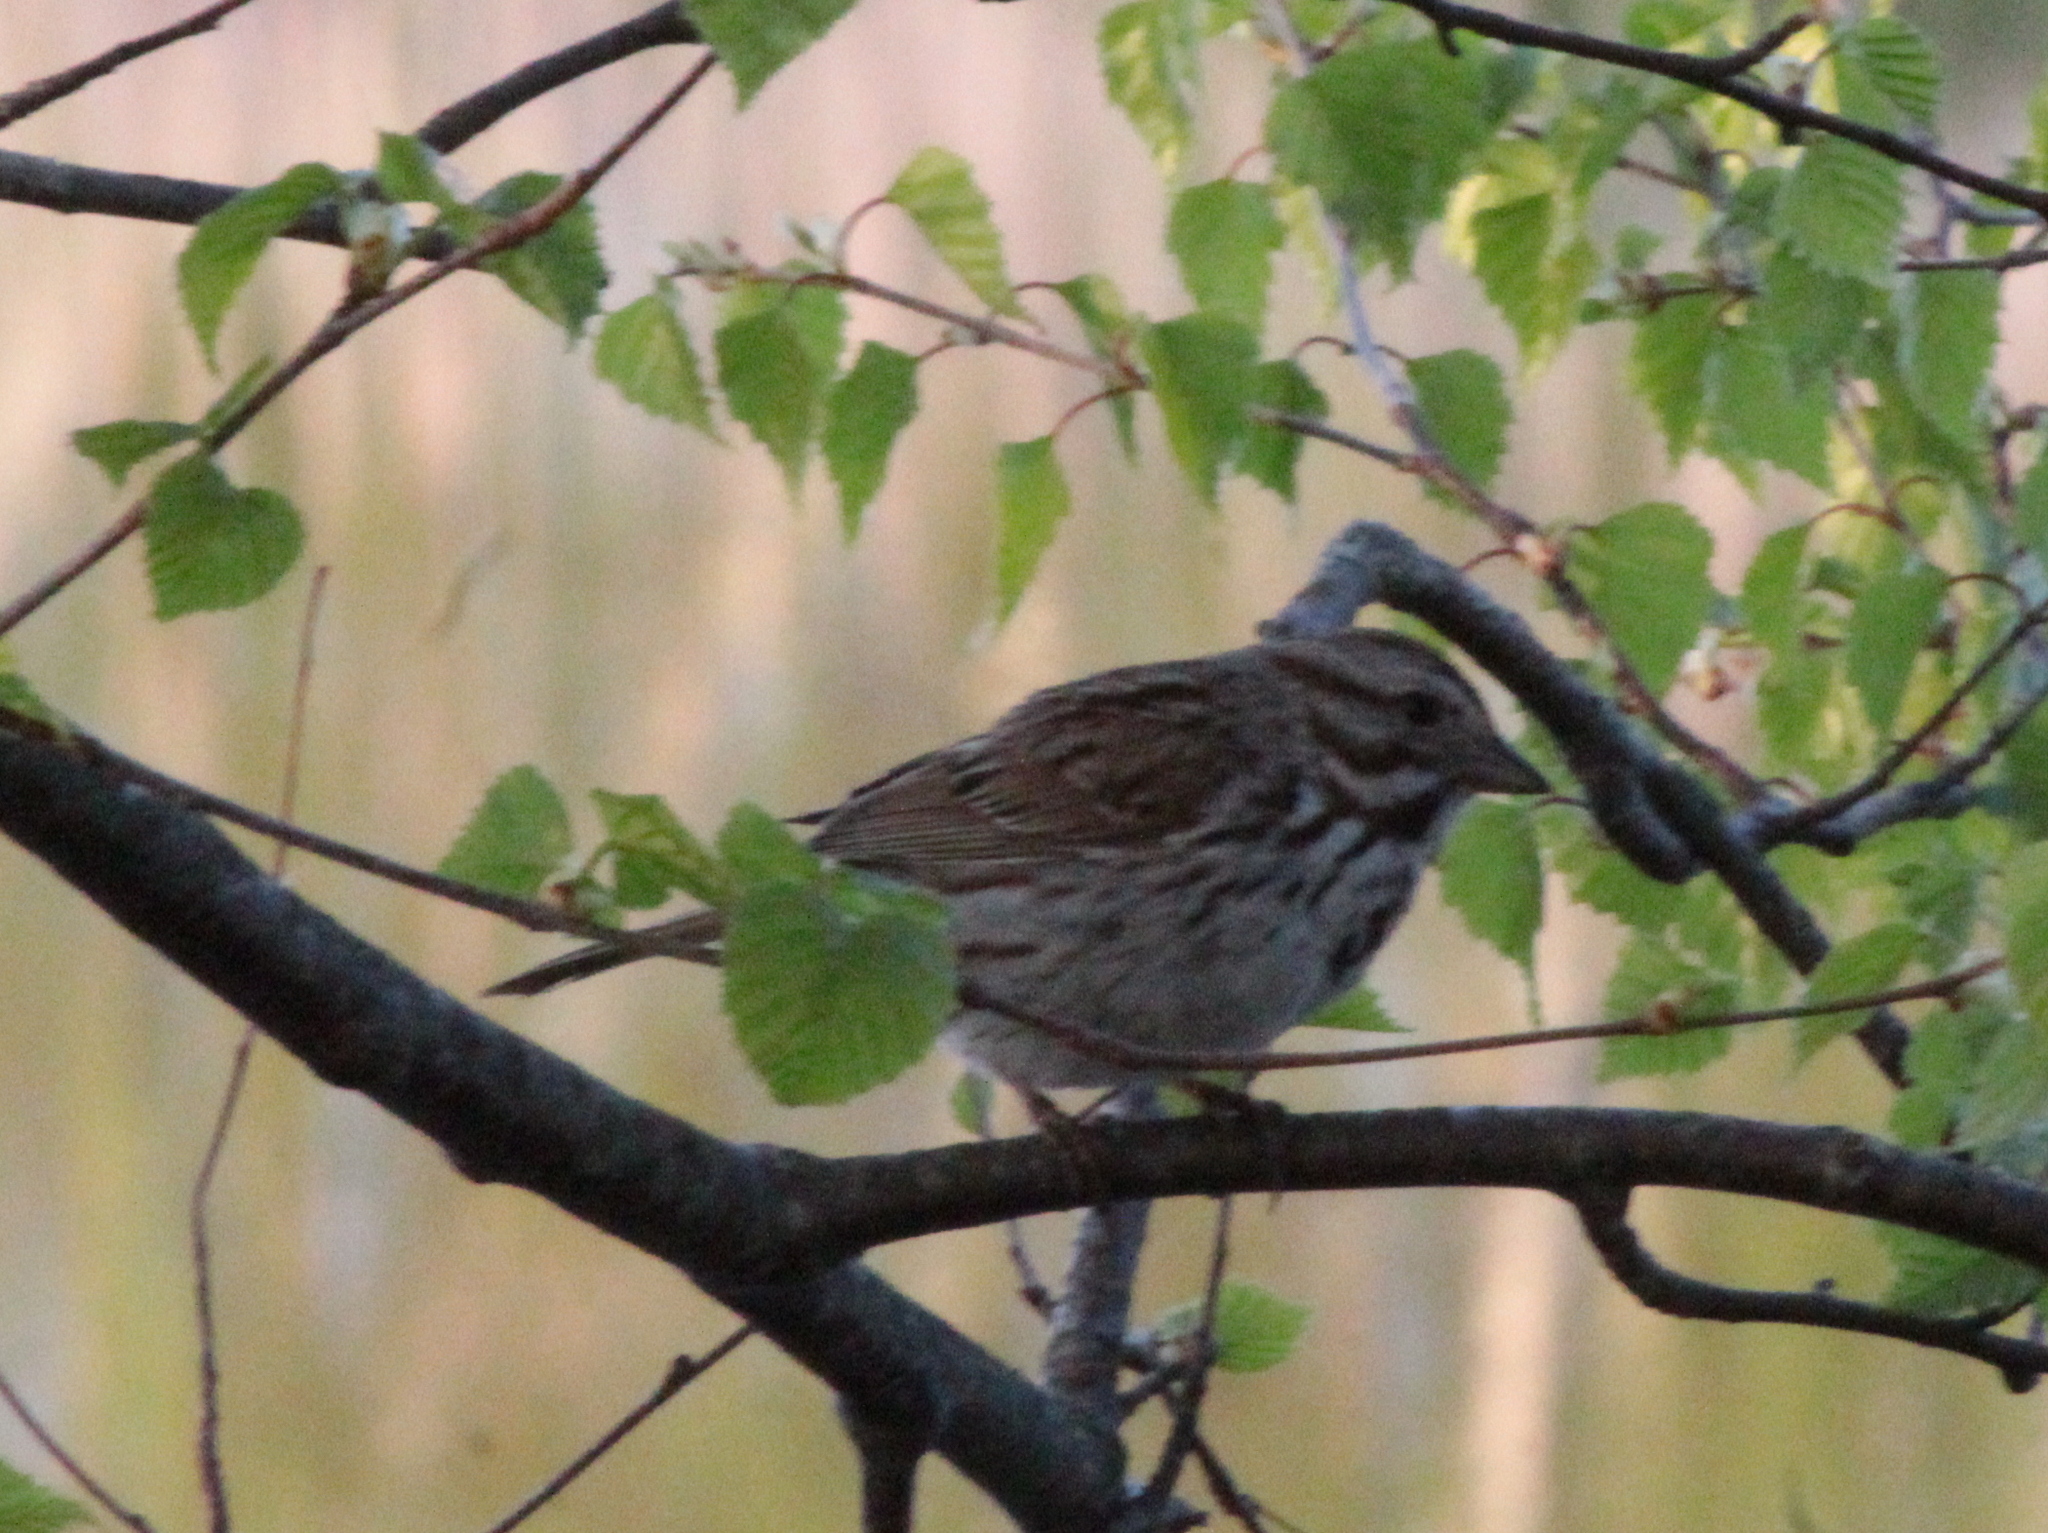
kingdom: Animalia
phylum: Chordata
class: Aves
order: Passeriformes
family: Passerellidae
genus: Melospiza
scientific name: Melospiza melodia
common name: Song sparrow
